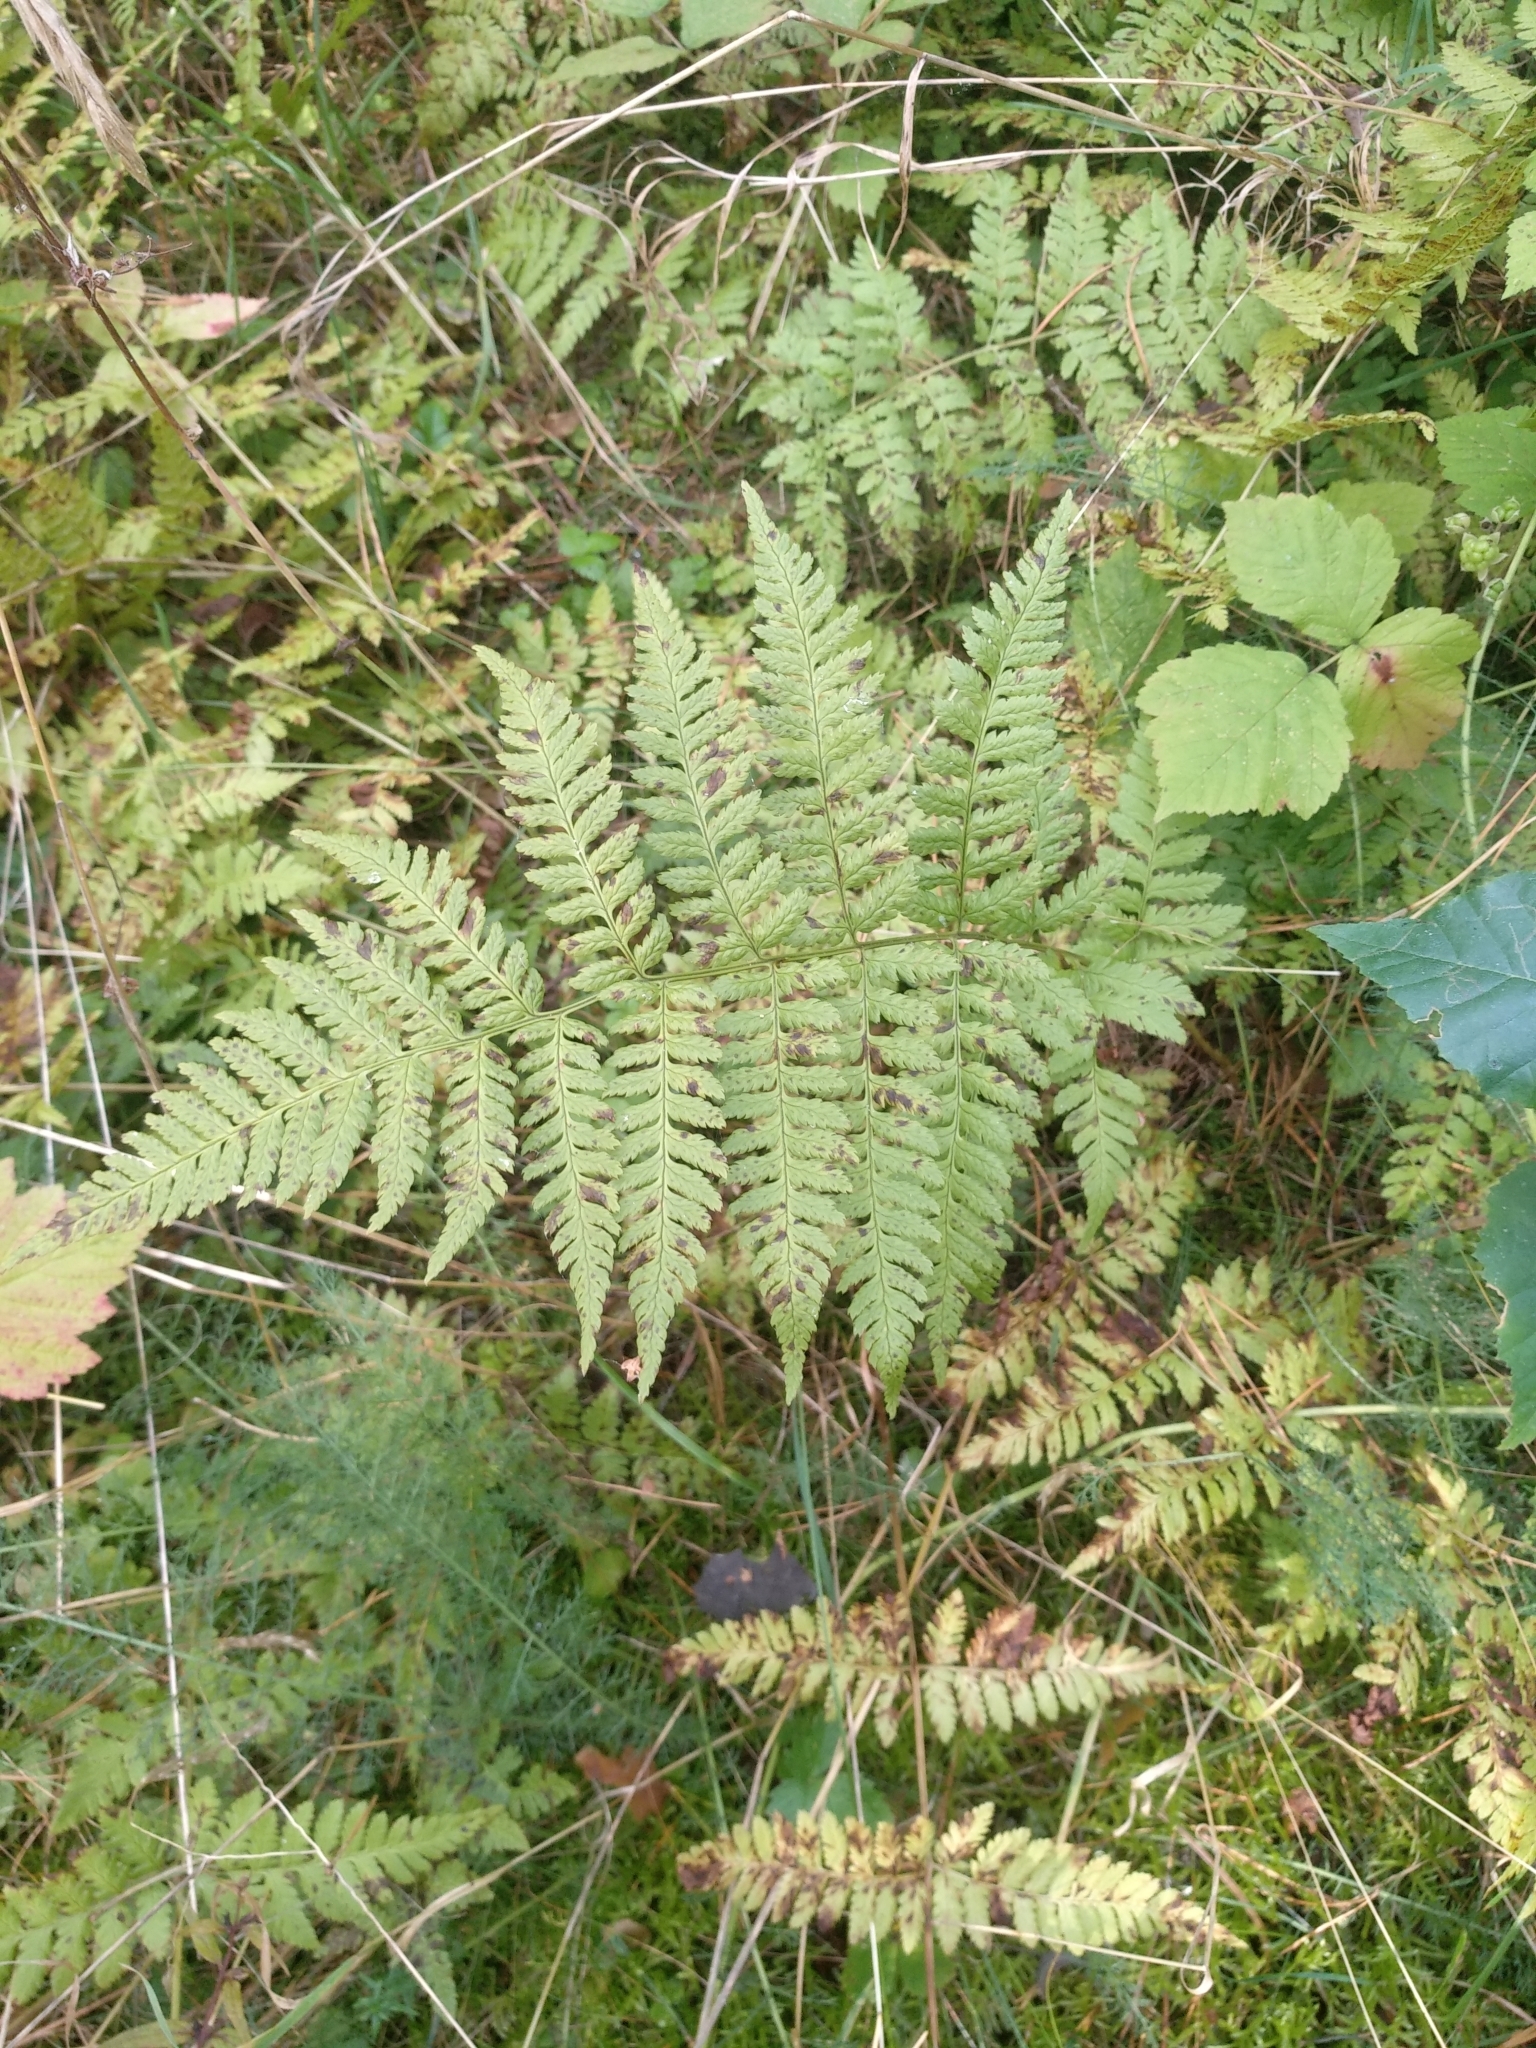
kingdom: Plantae
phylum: Tracheophyta
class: Polypodiopsida
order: Polypodiales
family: Dryopteridaceae
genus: Dryopteris
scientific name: Dryopteris carthusiana
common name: Narrow buckler-fern
